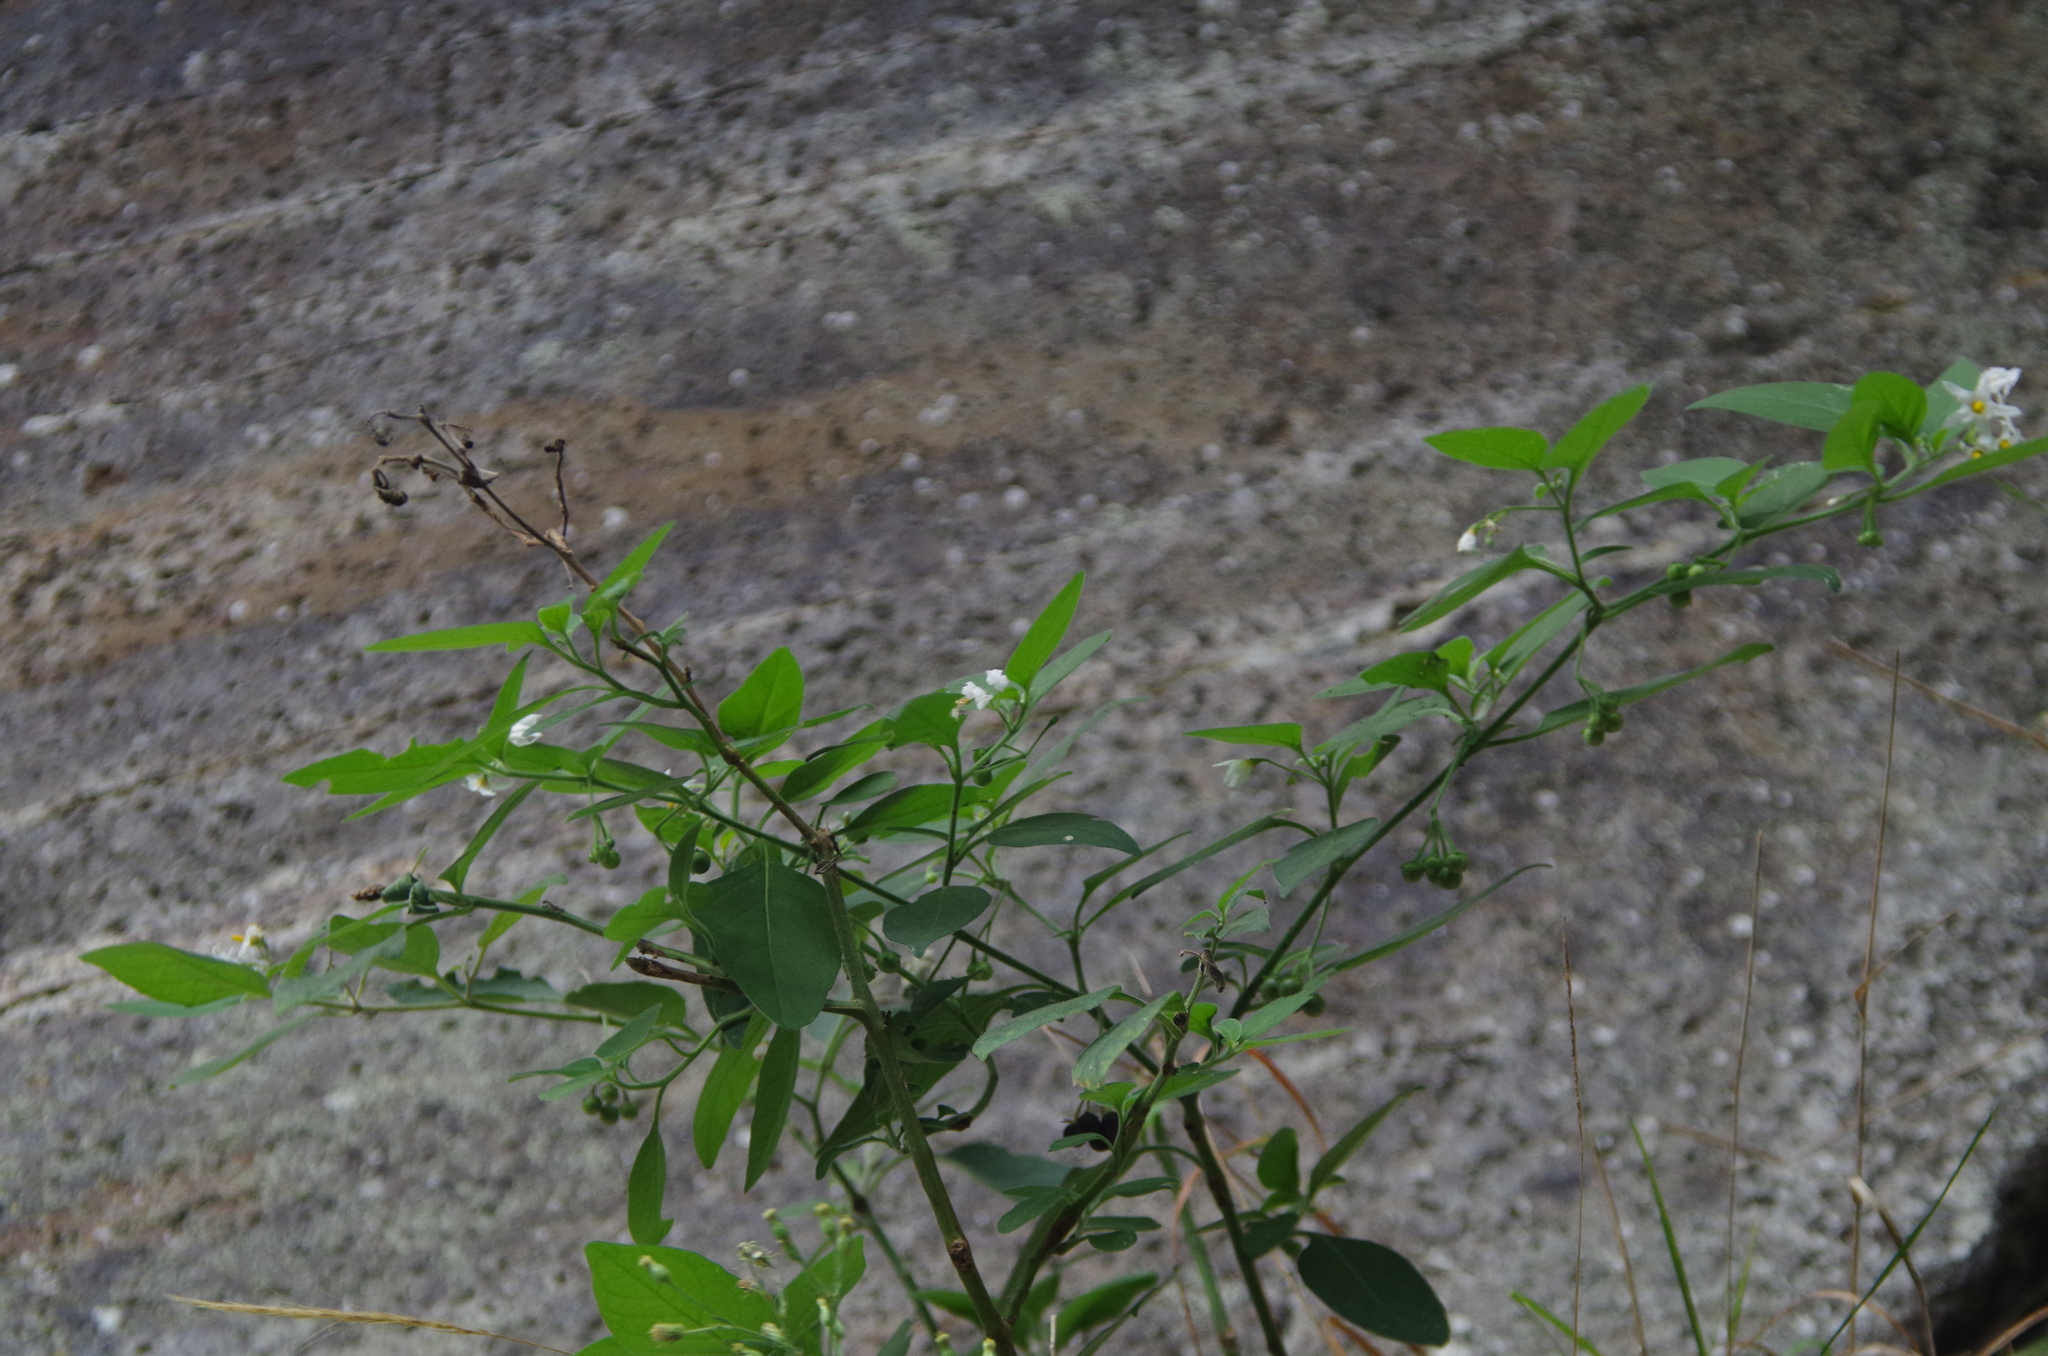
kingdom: Plantae
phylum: Tracheophyta
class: Magnoliopsida
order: Solanales
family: Solanaceae
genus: Solanum
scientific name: Solanum chenopodioides
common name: Tall nightshade
